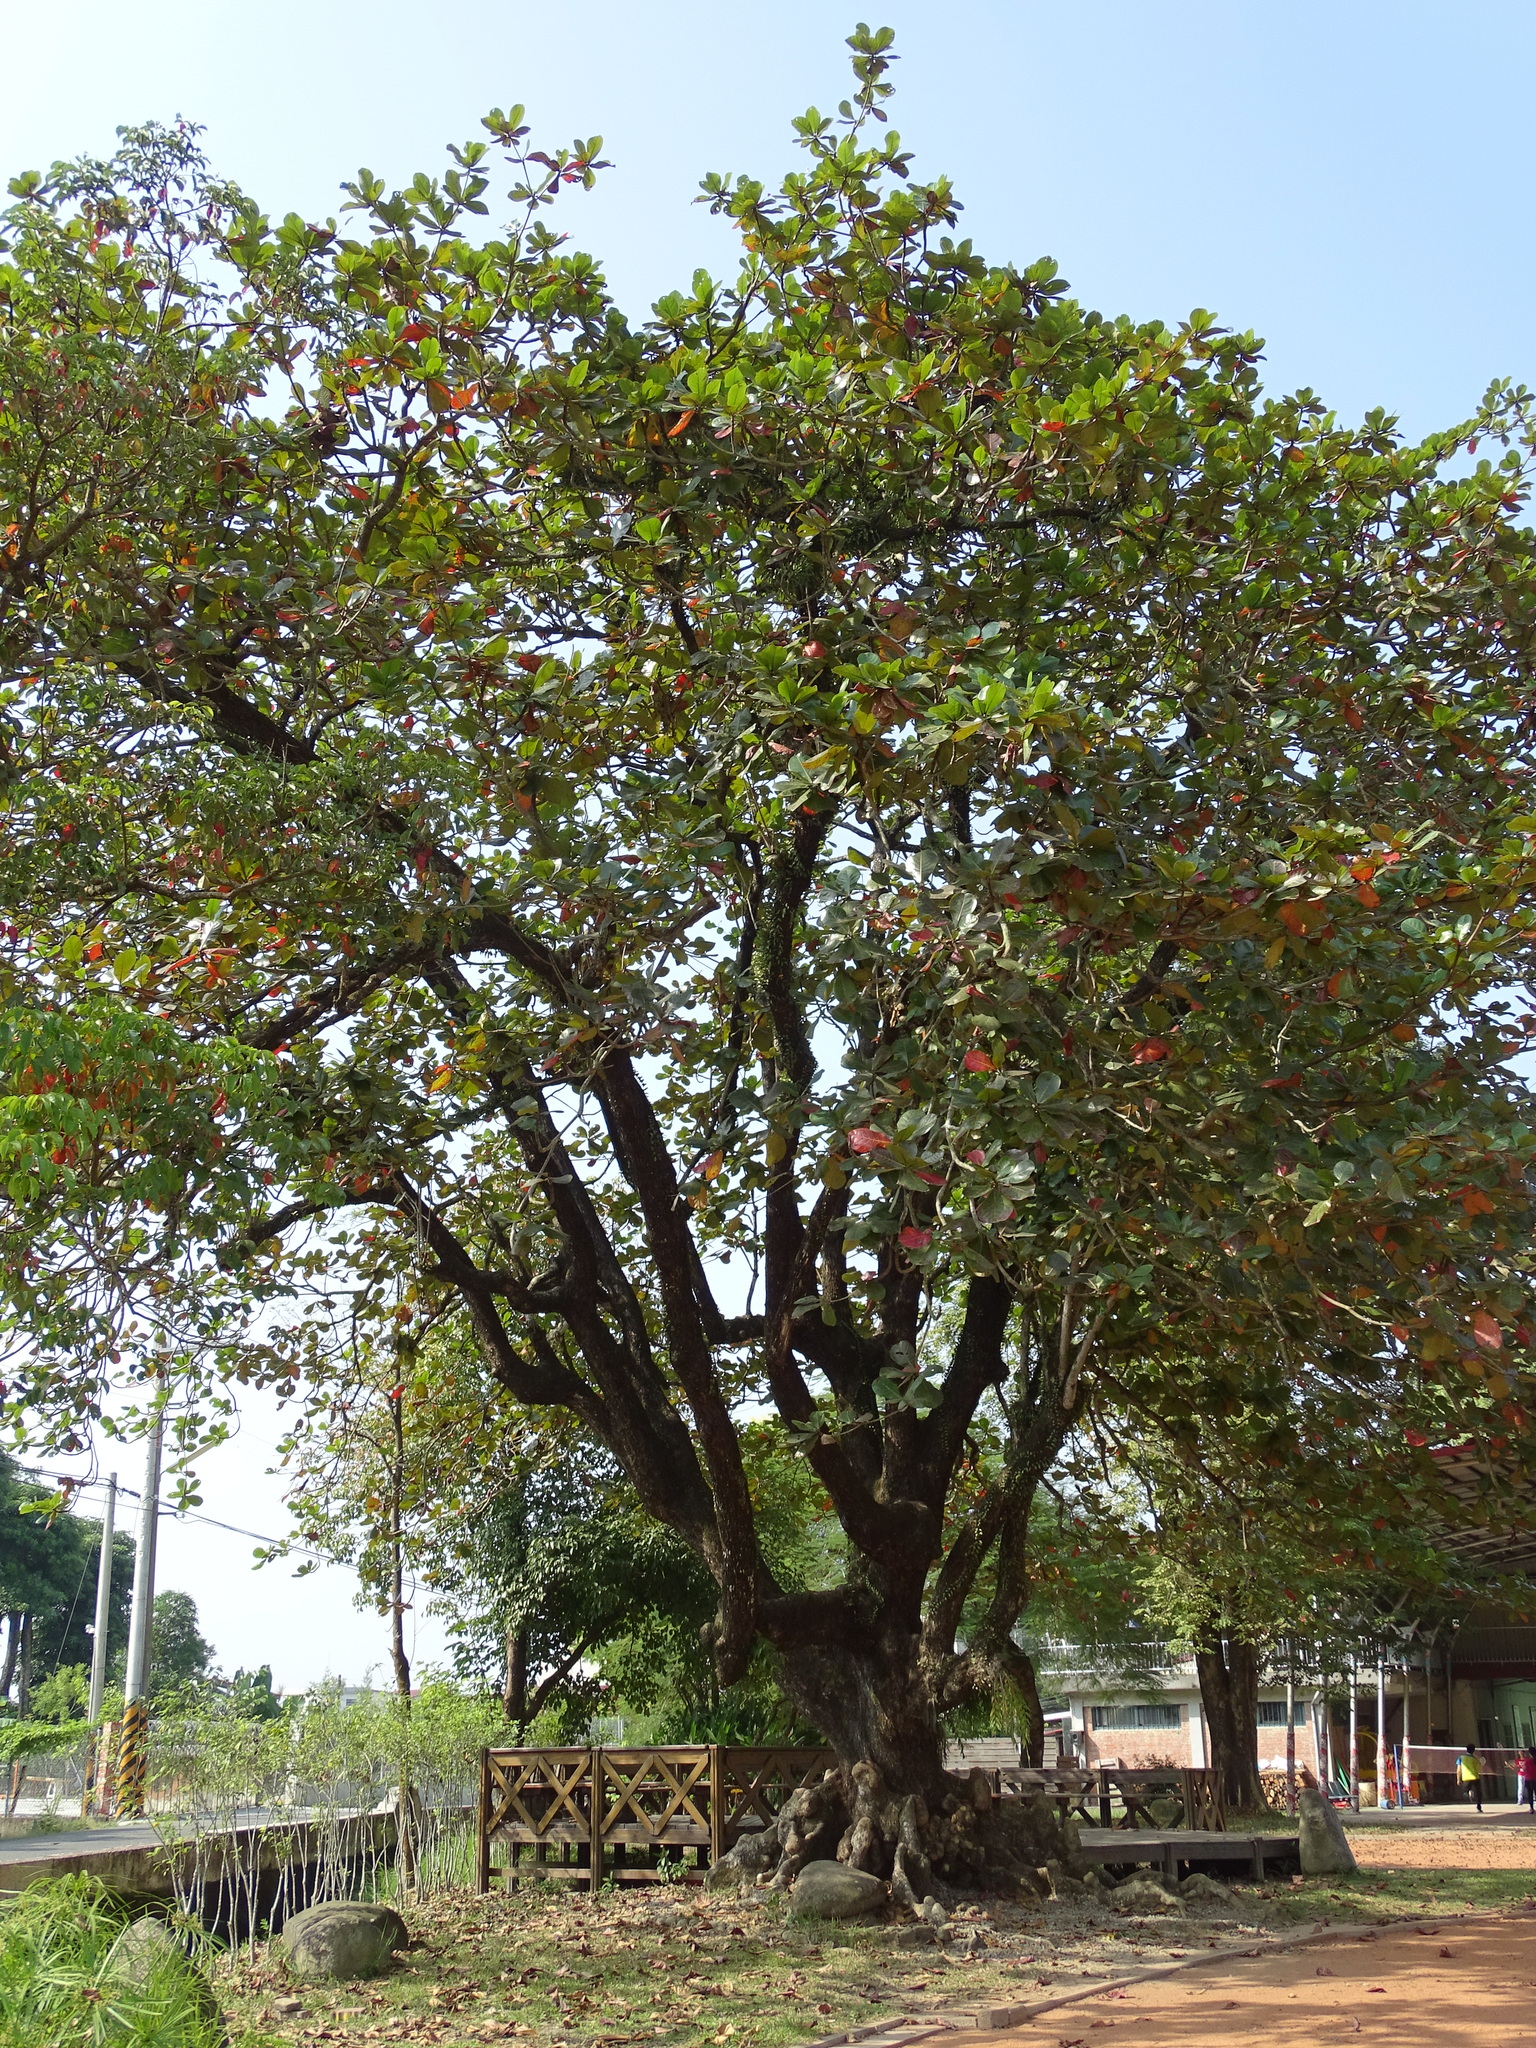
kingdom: Plantae
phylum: Tracheophyta
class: Magnoliopsida
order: Myrtales
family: Combretaceae
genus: Terminalia
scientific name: Terminalia catappa
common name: Tropical almond
